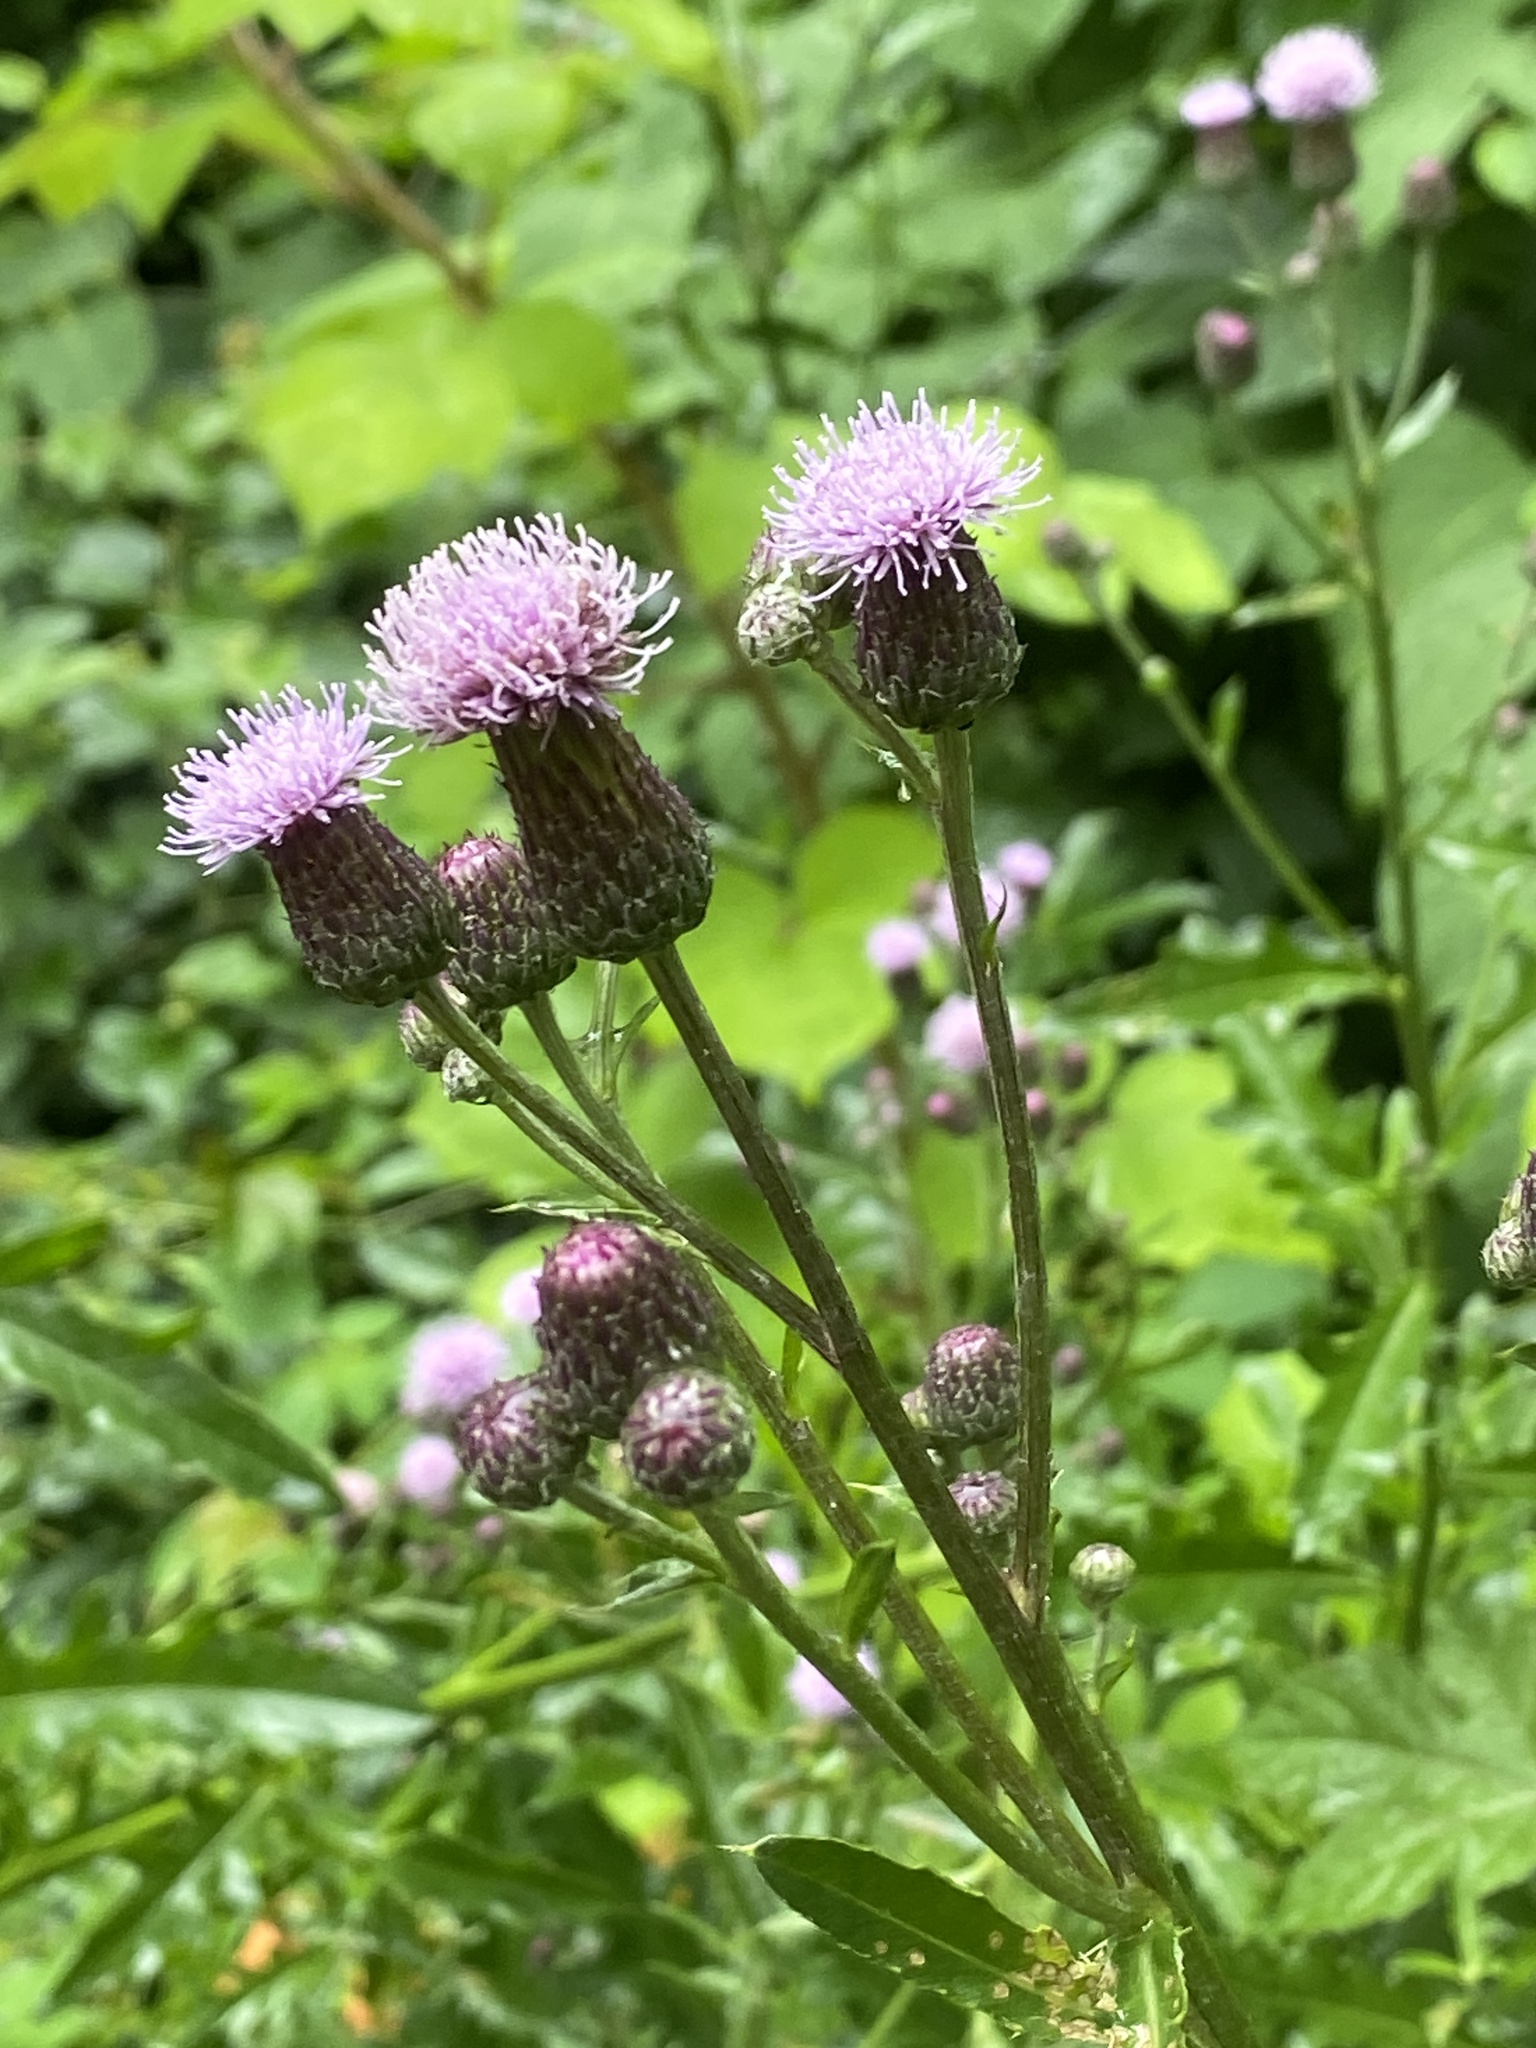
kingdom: Plantae
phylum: Tracheophyta
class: Magnoliopsida
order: Asterales
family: Asteraceae
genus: Cirsium
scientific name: Cirsium arvense
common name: Creeping thistle
